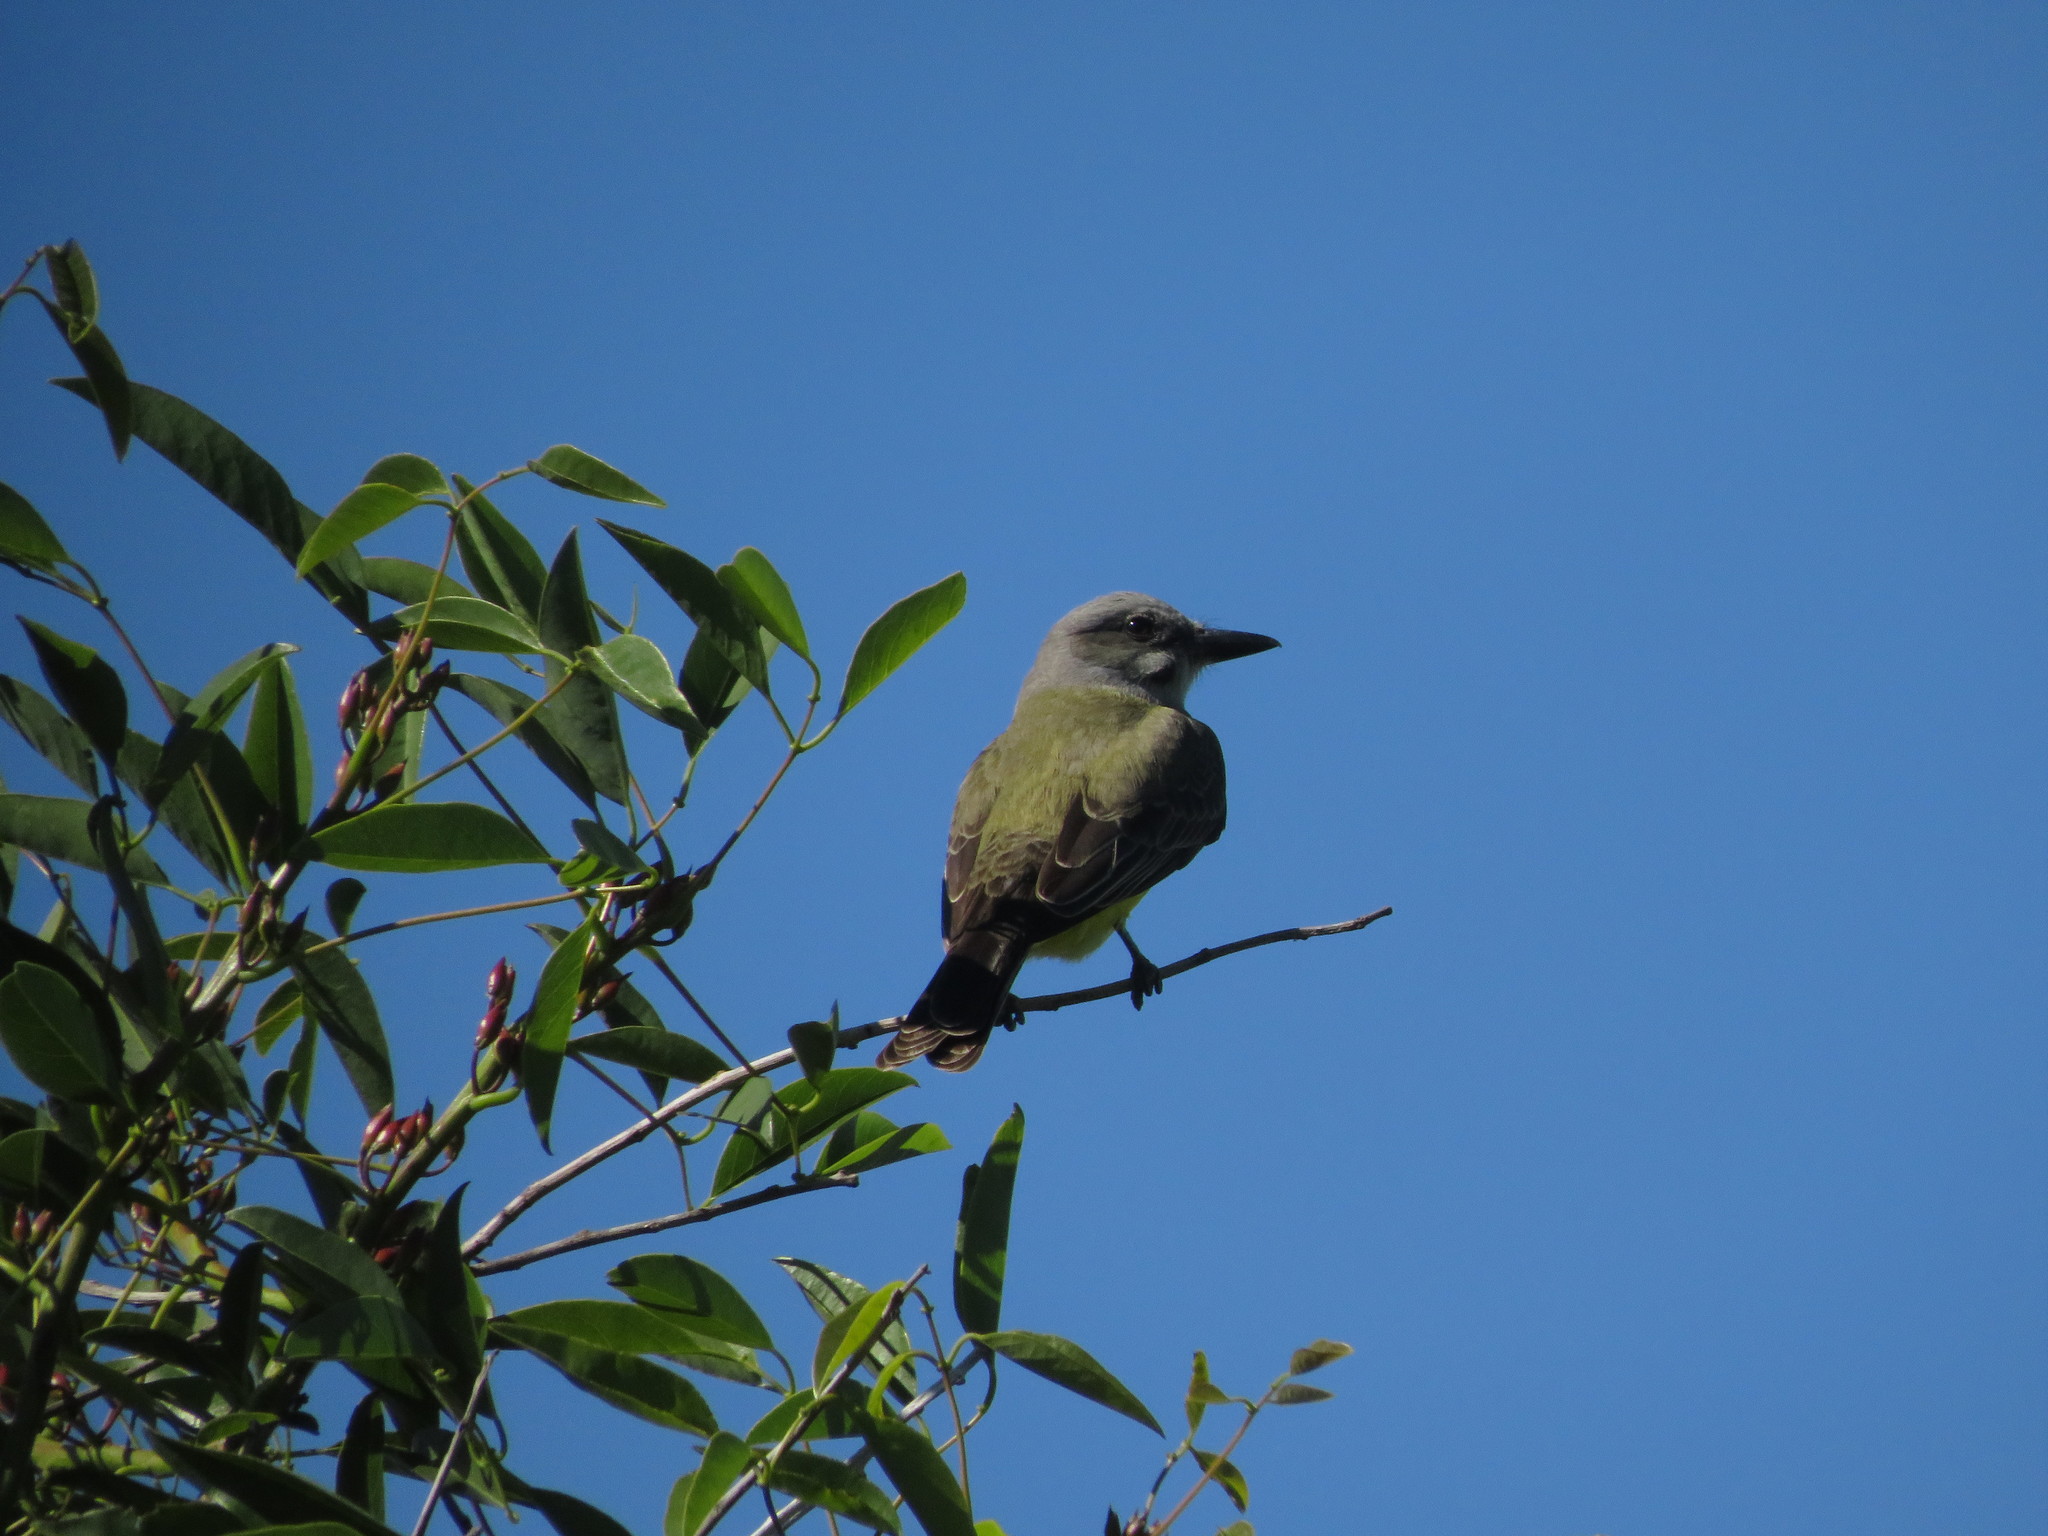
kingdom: Animalia
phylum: Chordata
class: Aves
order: Passeriformes
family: Tyrannidae
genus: Tyrannus
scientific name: Tyrannus melancholicus
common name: Tropical kingbird
